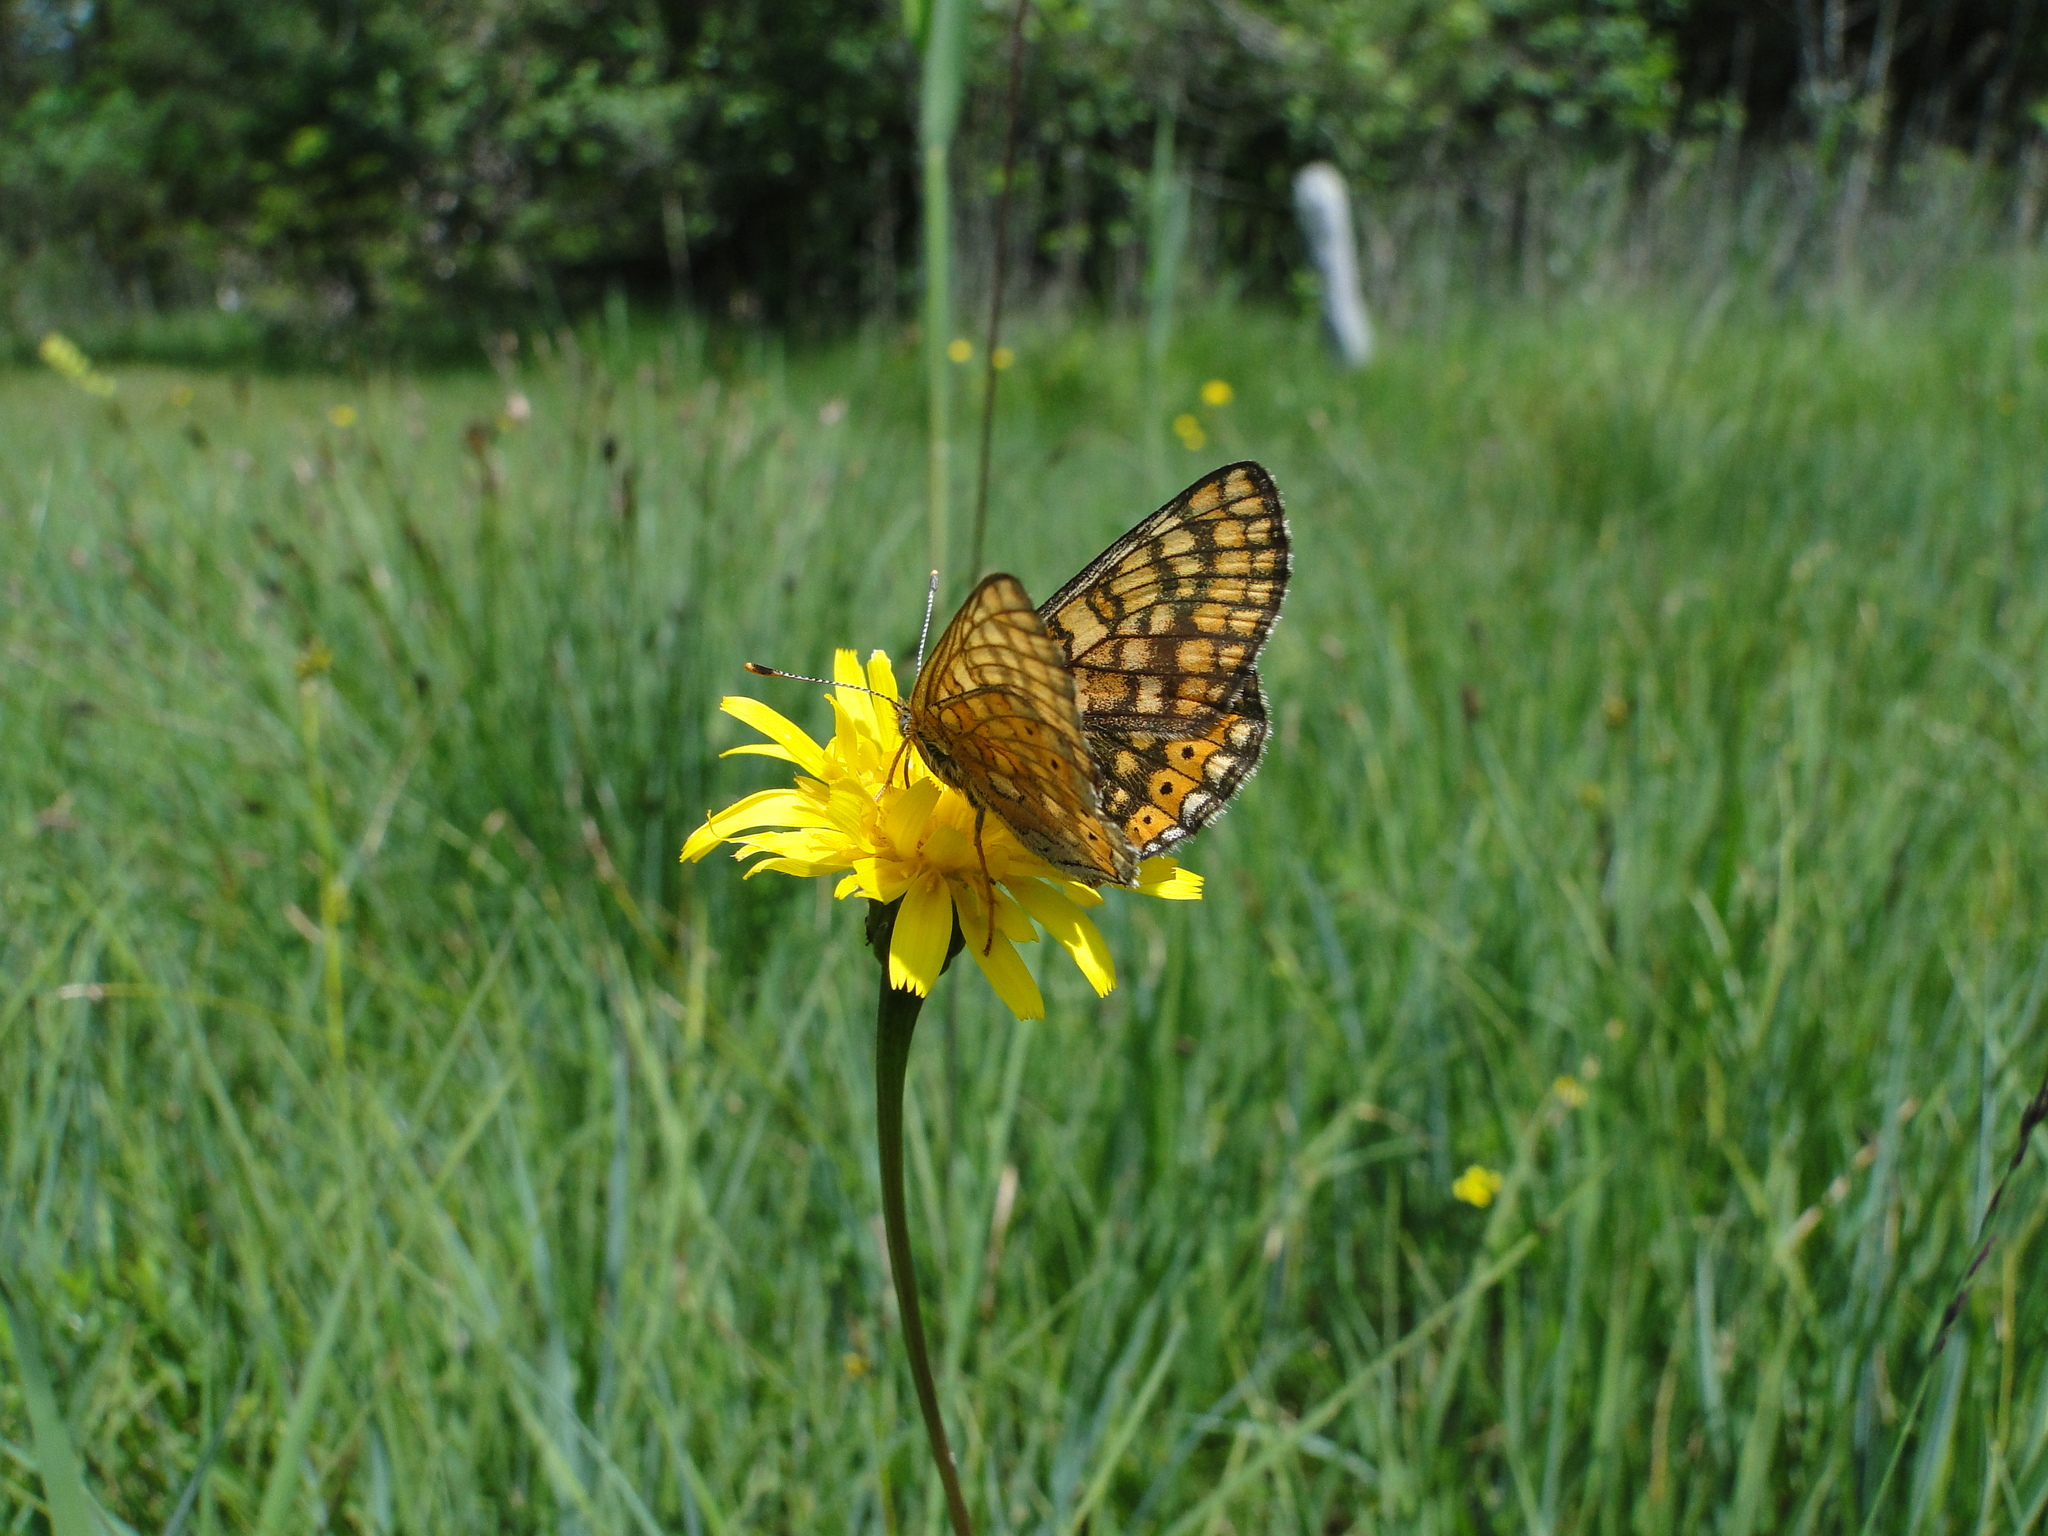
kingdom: Animalia
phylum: Arthropoda
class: Insecta
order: Lepidoptera
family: Nymphalidae
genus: Euphydryas
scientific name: Euphydryas aurinia
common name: Marsh fritillary
